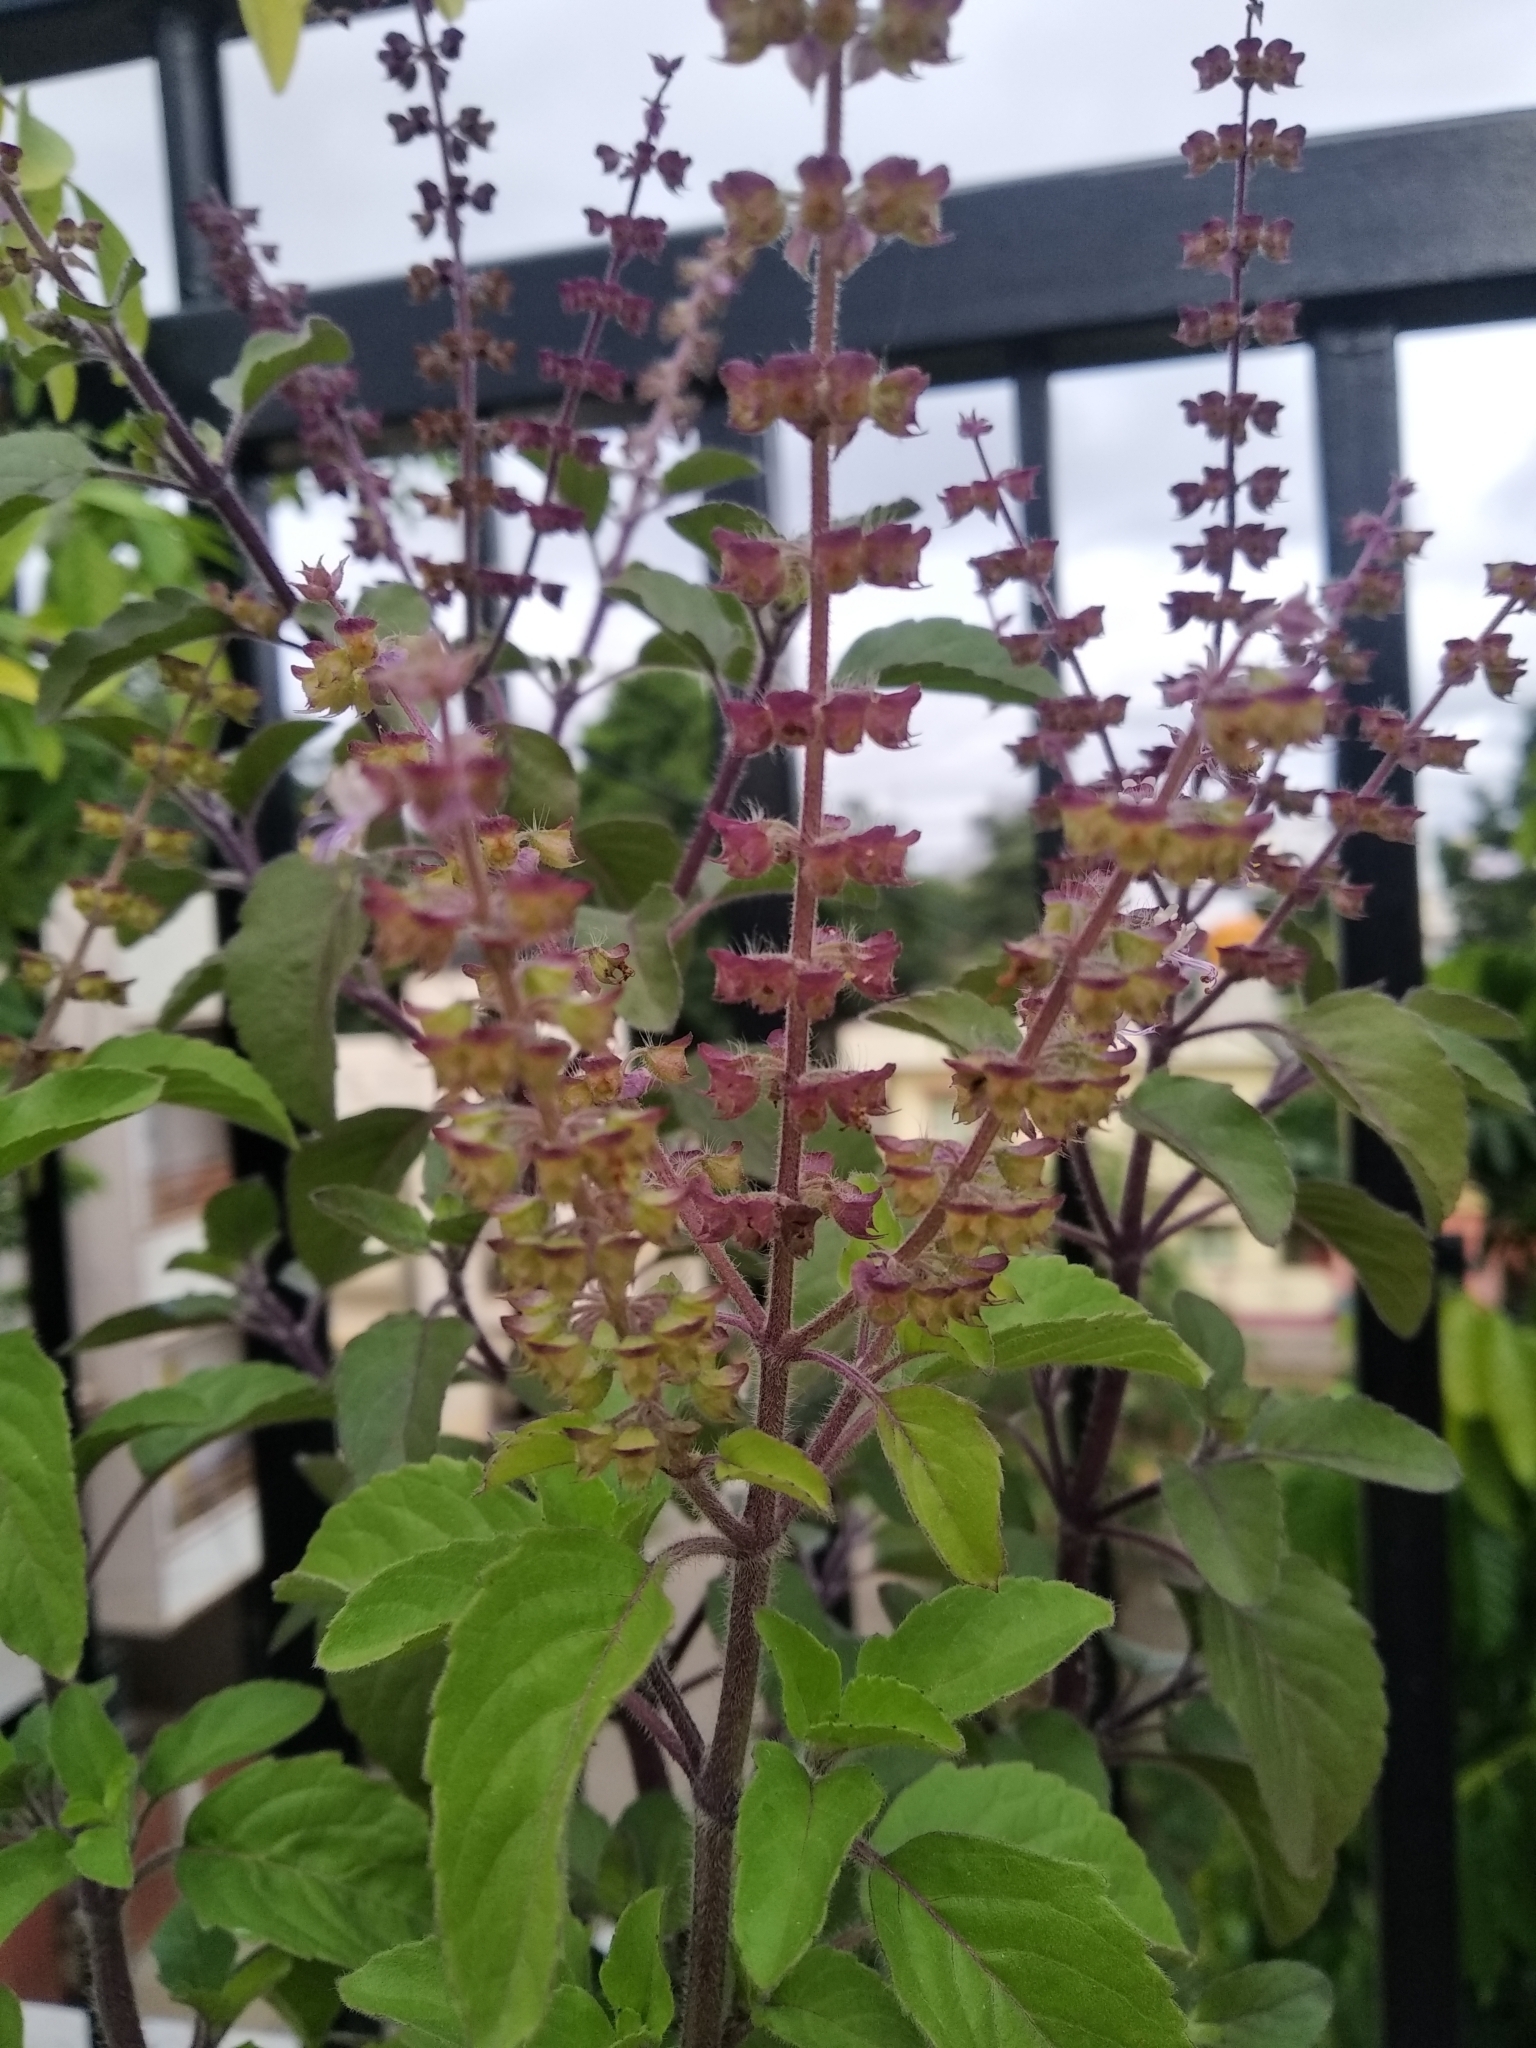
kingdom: Plantae
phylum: Tracheophyta
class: Magnoliopsida
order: Lamiales
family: Lamiaceae
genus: Ocimum
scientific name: Ocimum tenuiflorum
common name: Sacred basil
